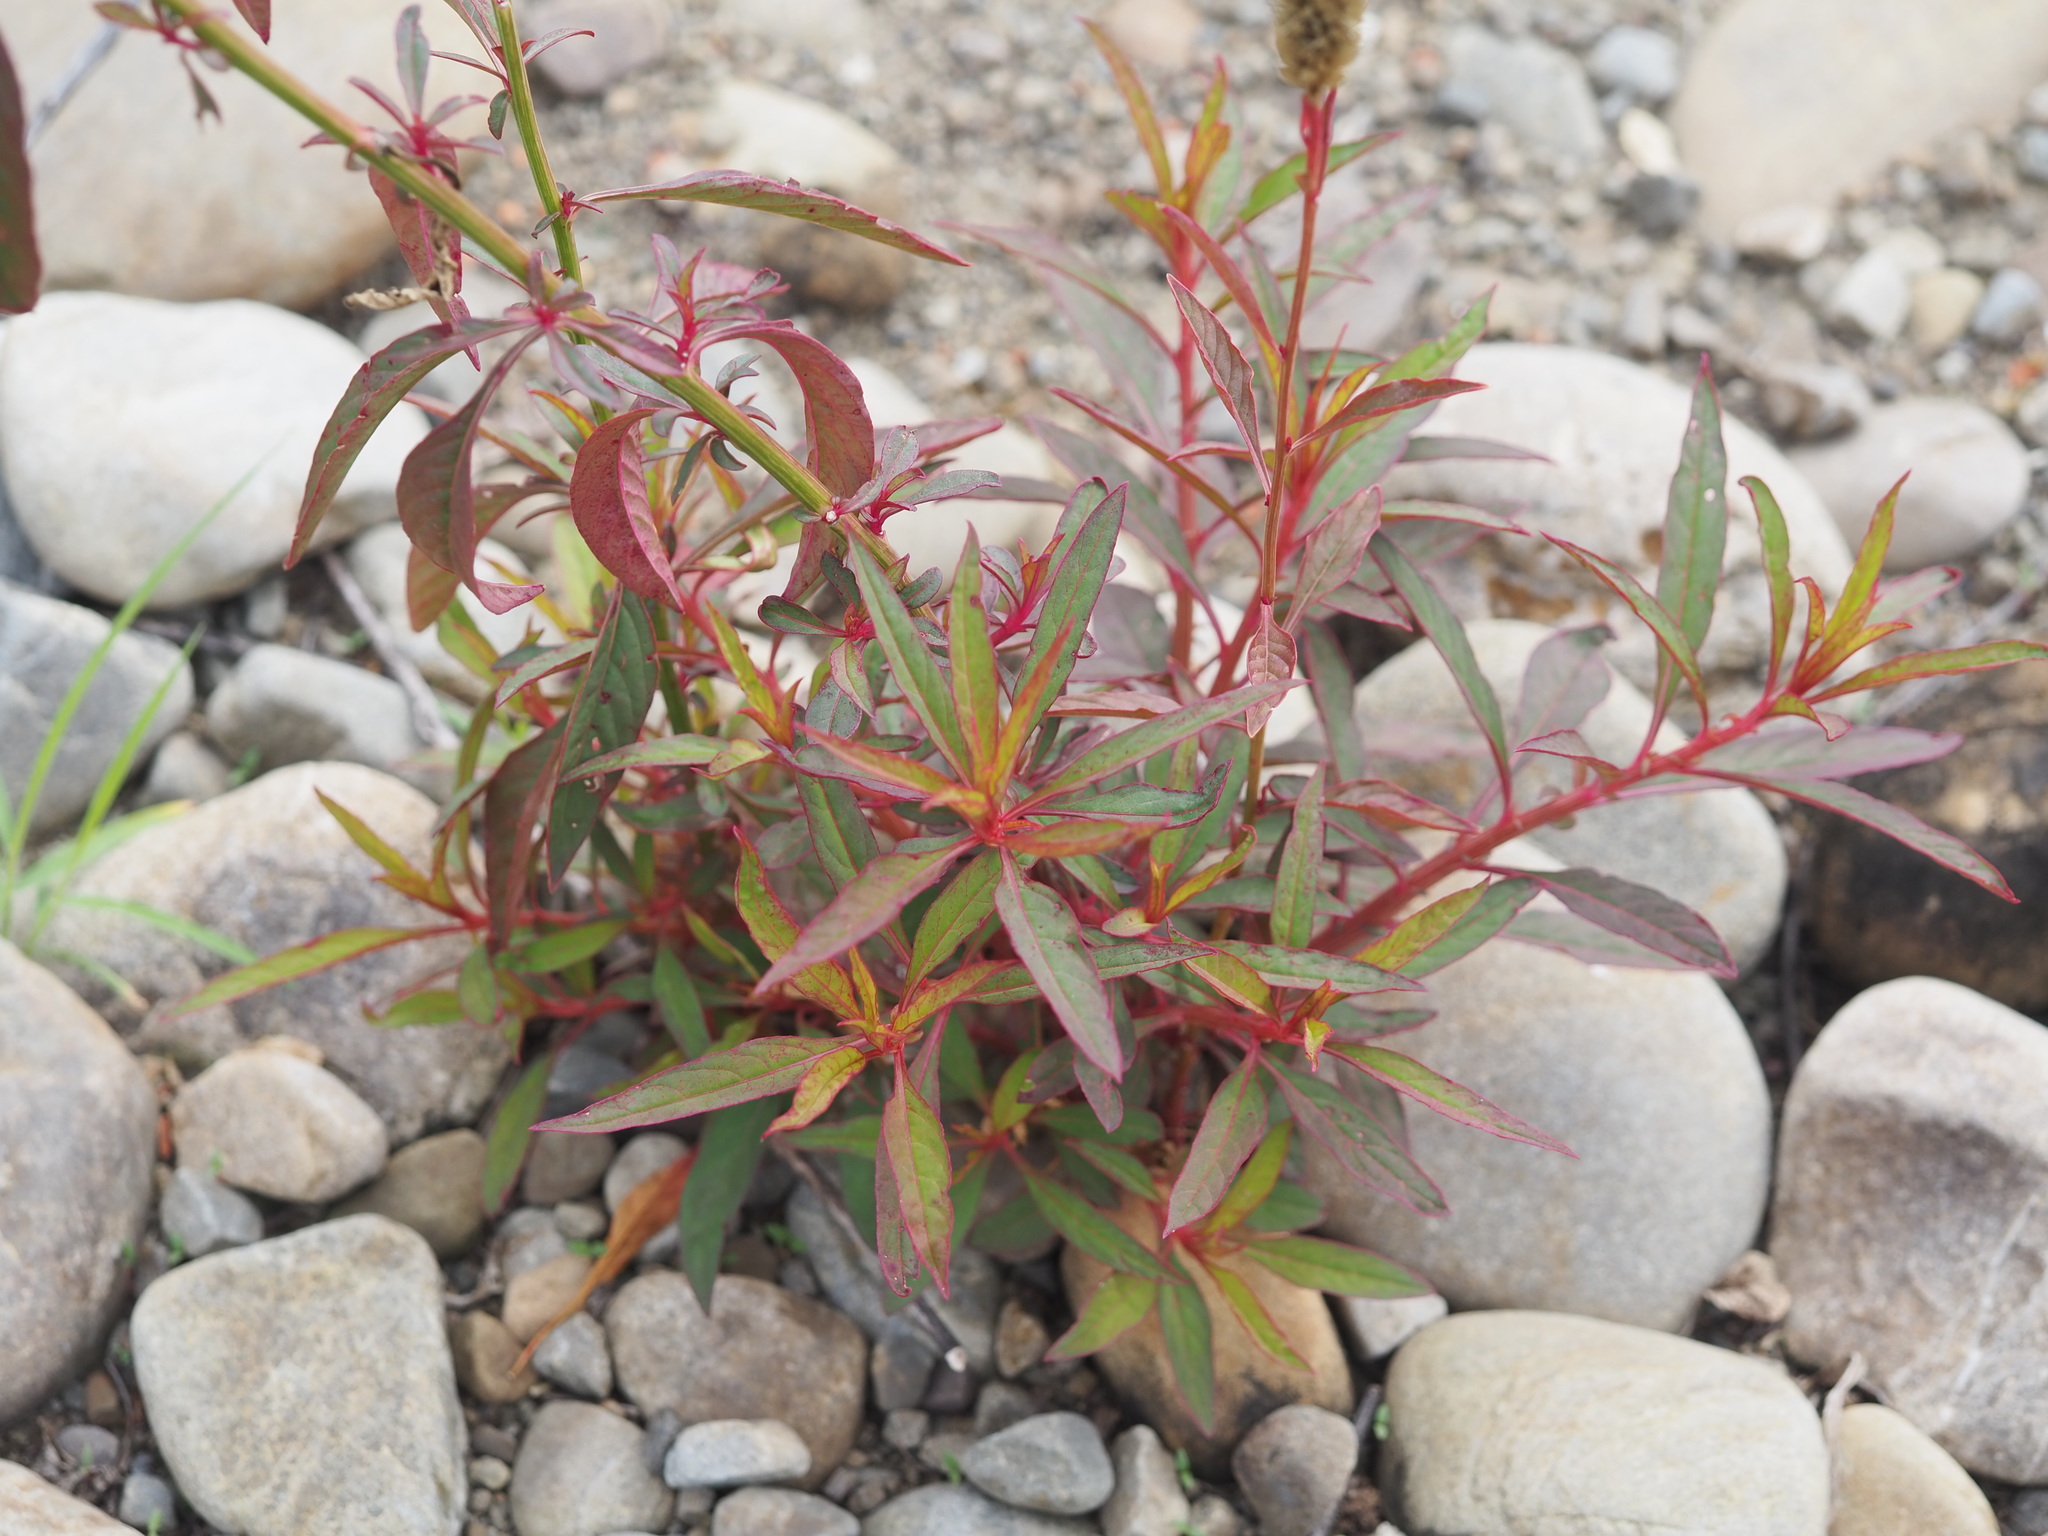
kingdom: Plantae
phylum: Tracheophyta
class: Magnoliopsida
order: Caryophyllales
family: Amaranthaceae
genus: Celosia
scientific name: Celosia argentea
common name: Feather cockscomb
